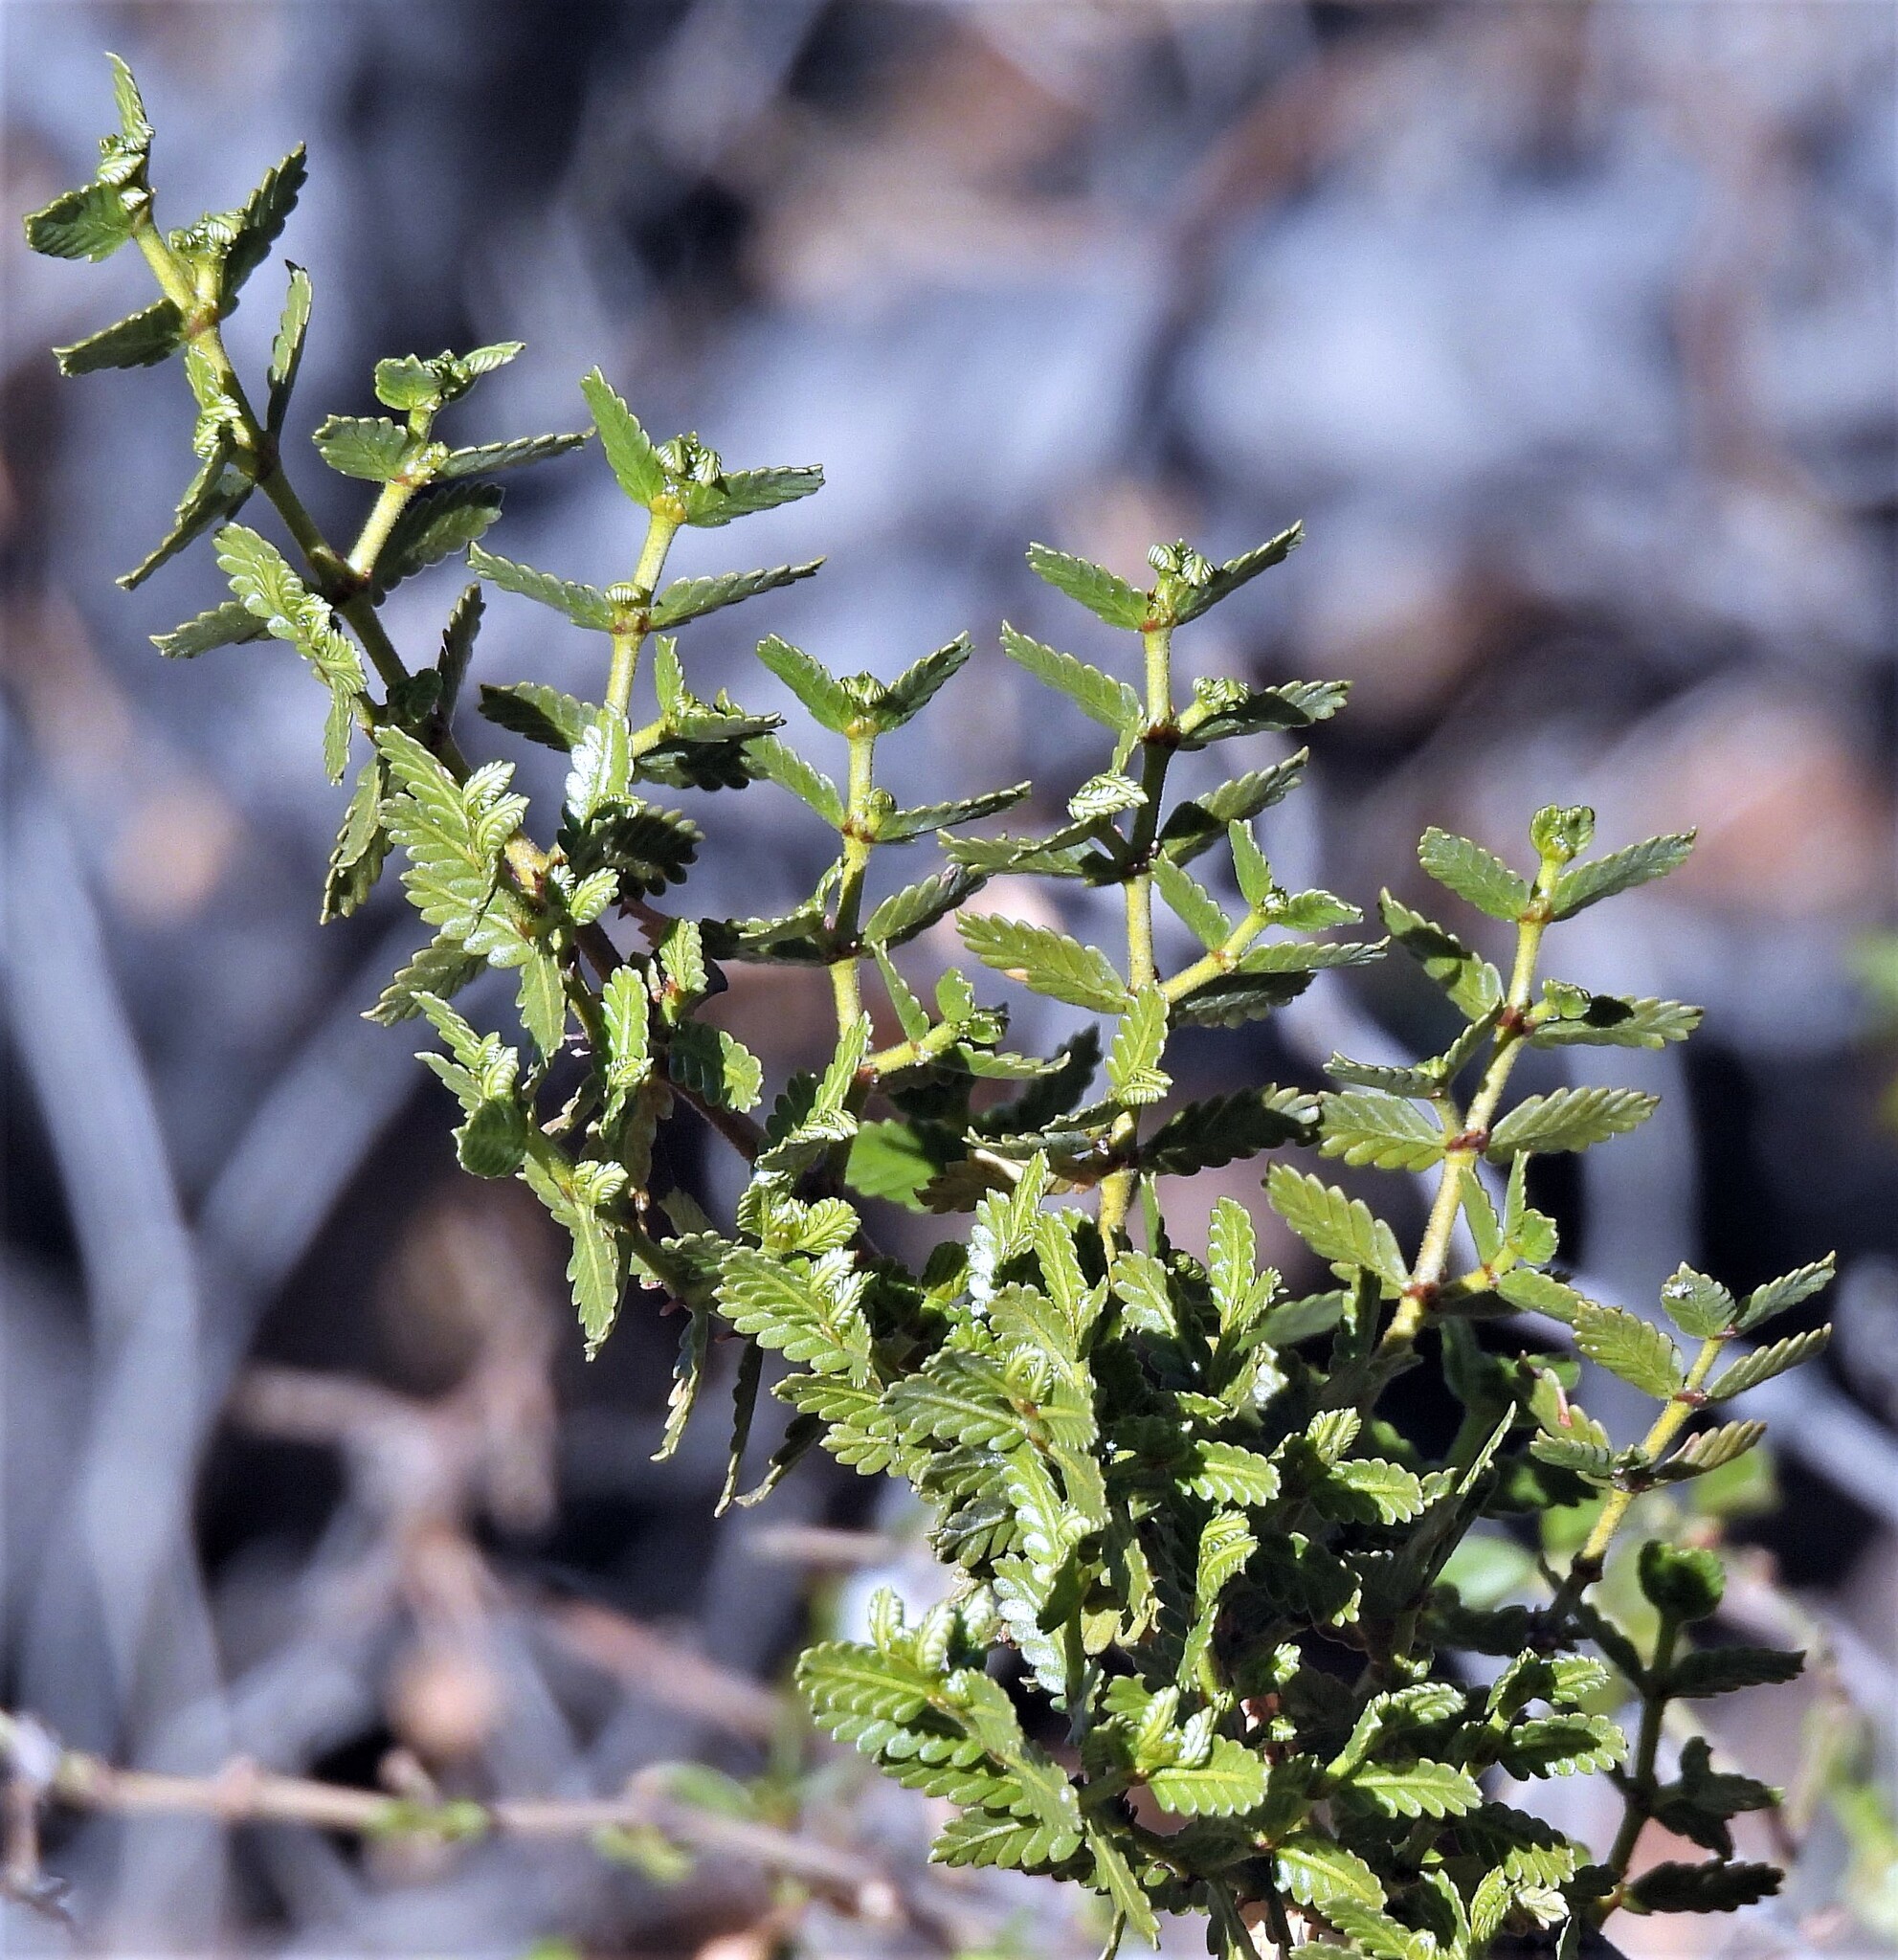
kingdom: Plantae
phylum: Tracheophyta
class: Magnoliopsida
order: Zygophyllales
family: Zygophyllaceae
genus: Larrea
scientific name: Larrea nitida
